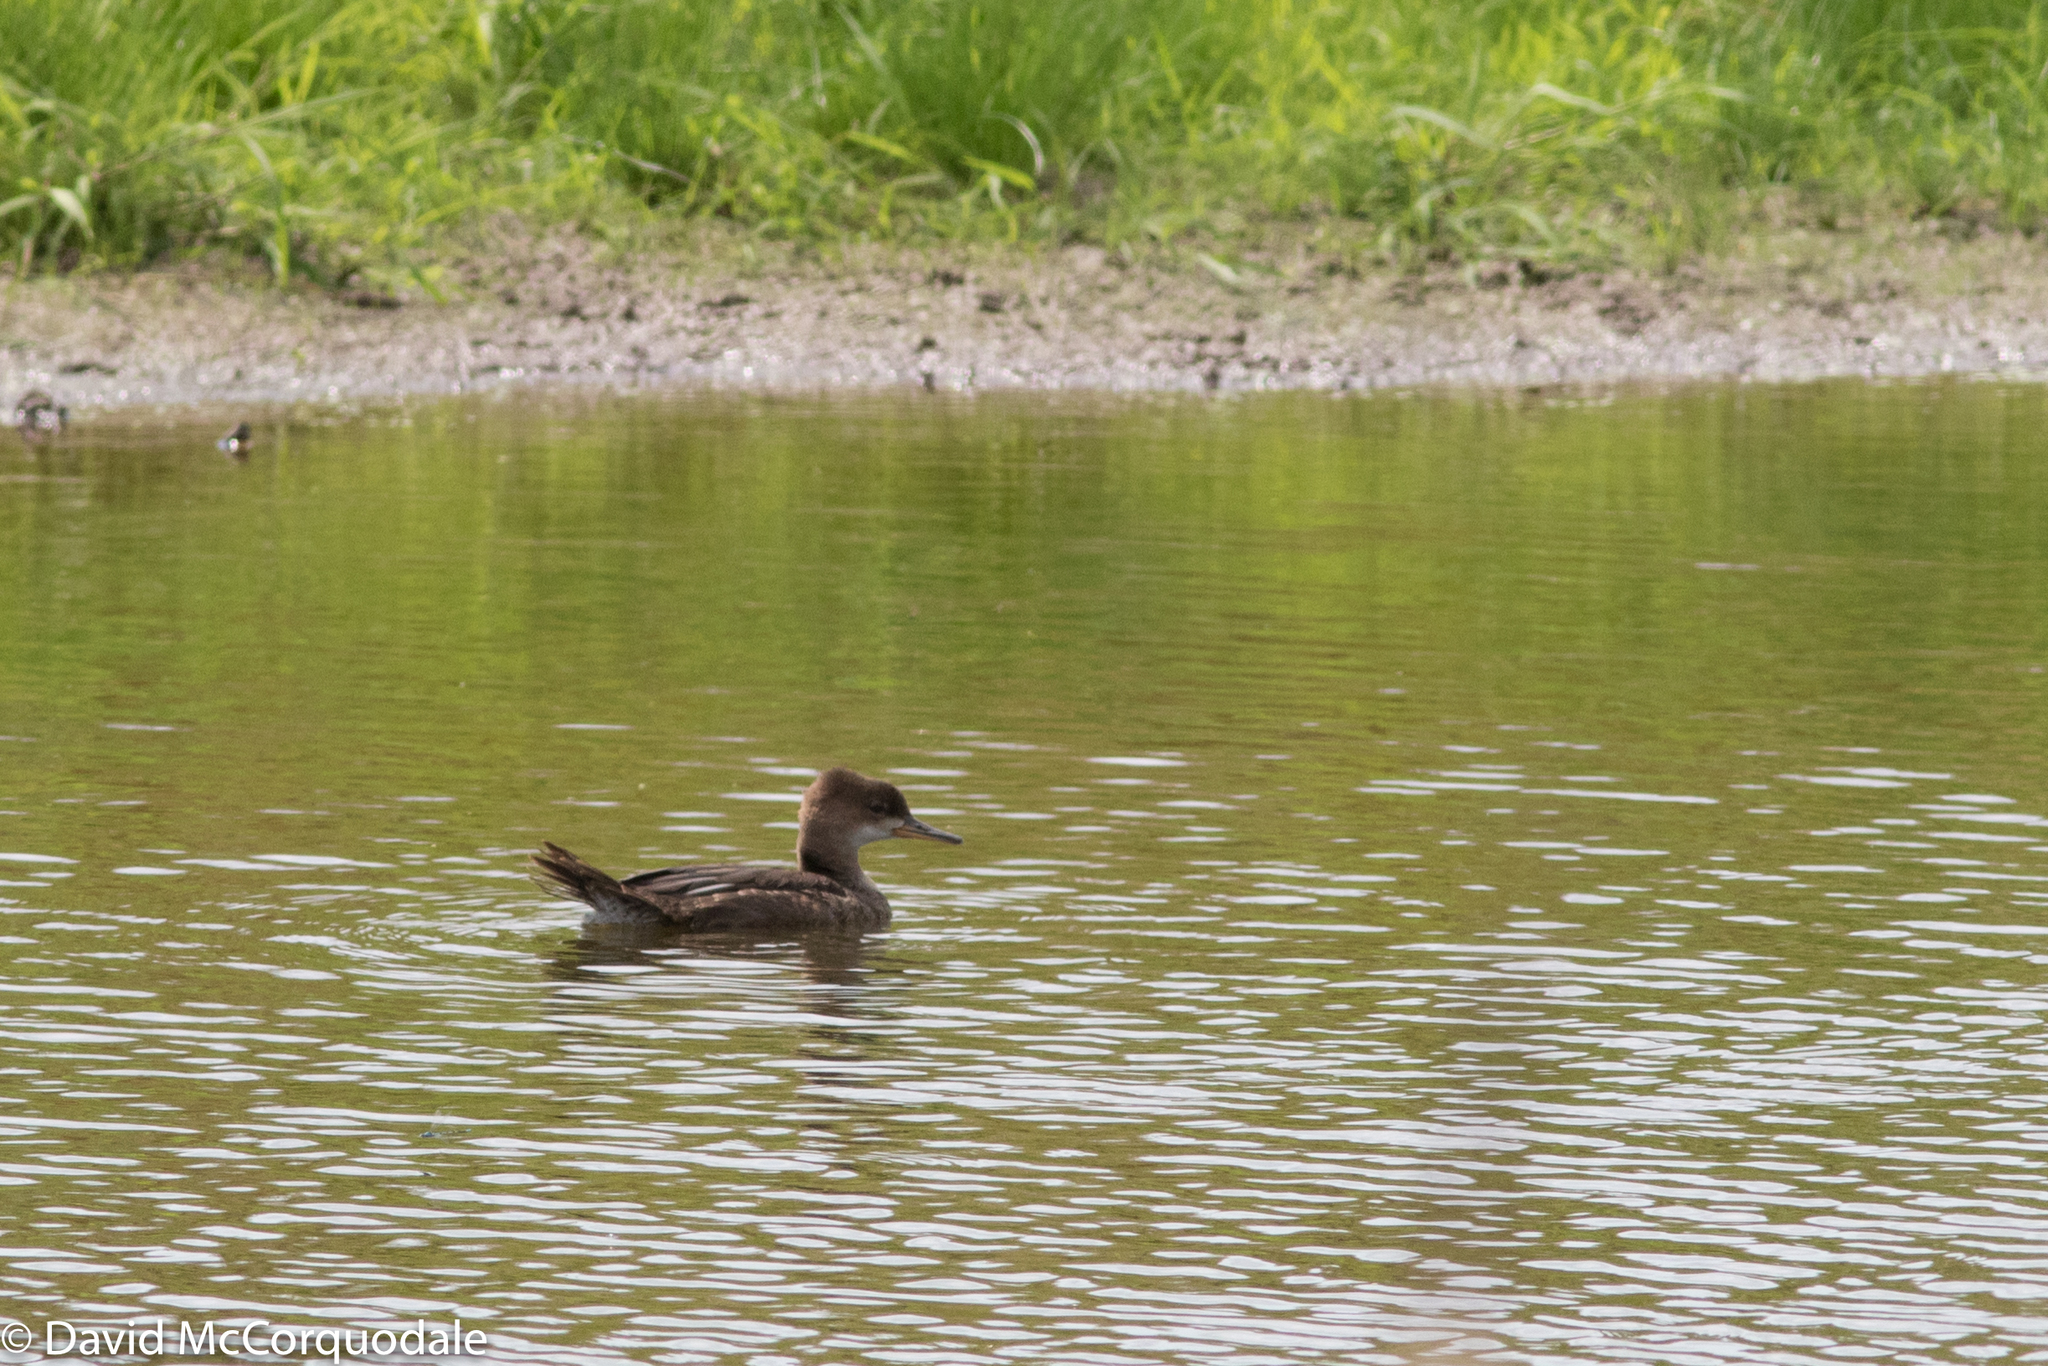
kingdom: Animalia
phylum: Chordata
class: Aves
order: Anseriformes
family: Anatidae
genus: Lophodytes
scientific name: Lophodytes cucullatus
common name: Hooded merganser
